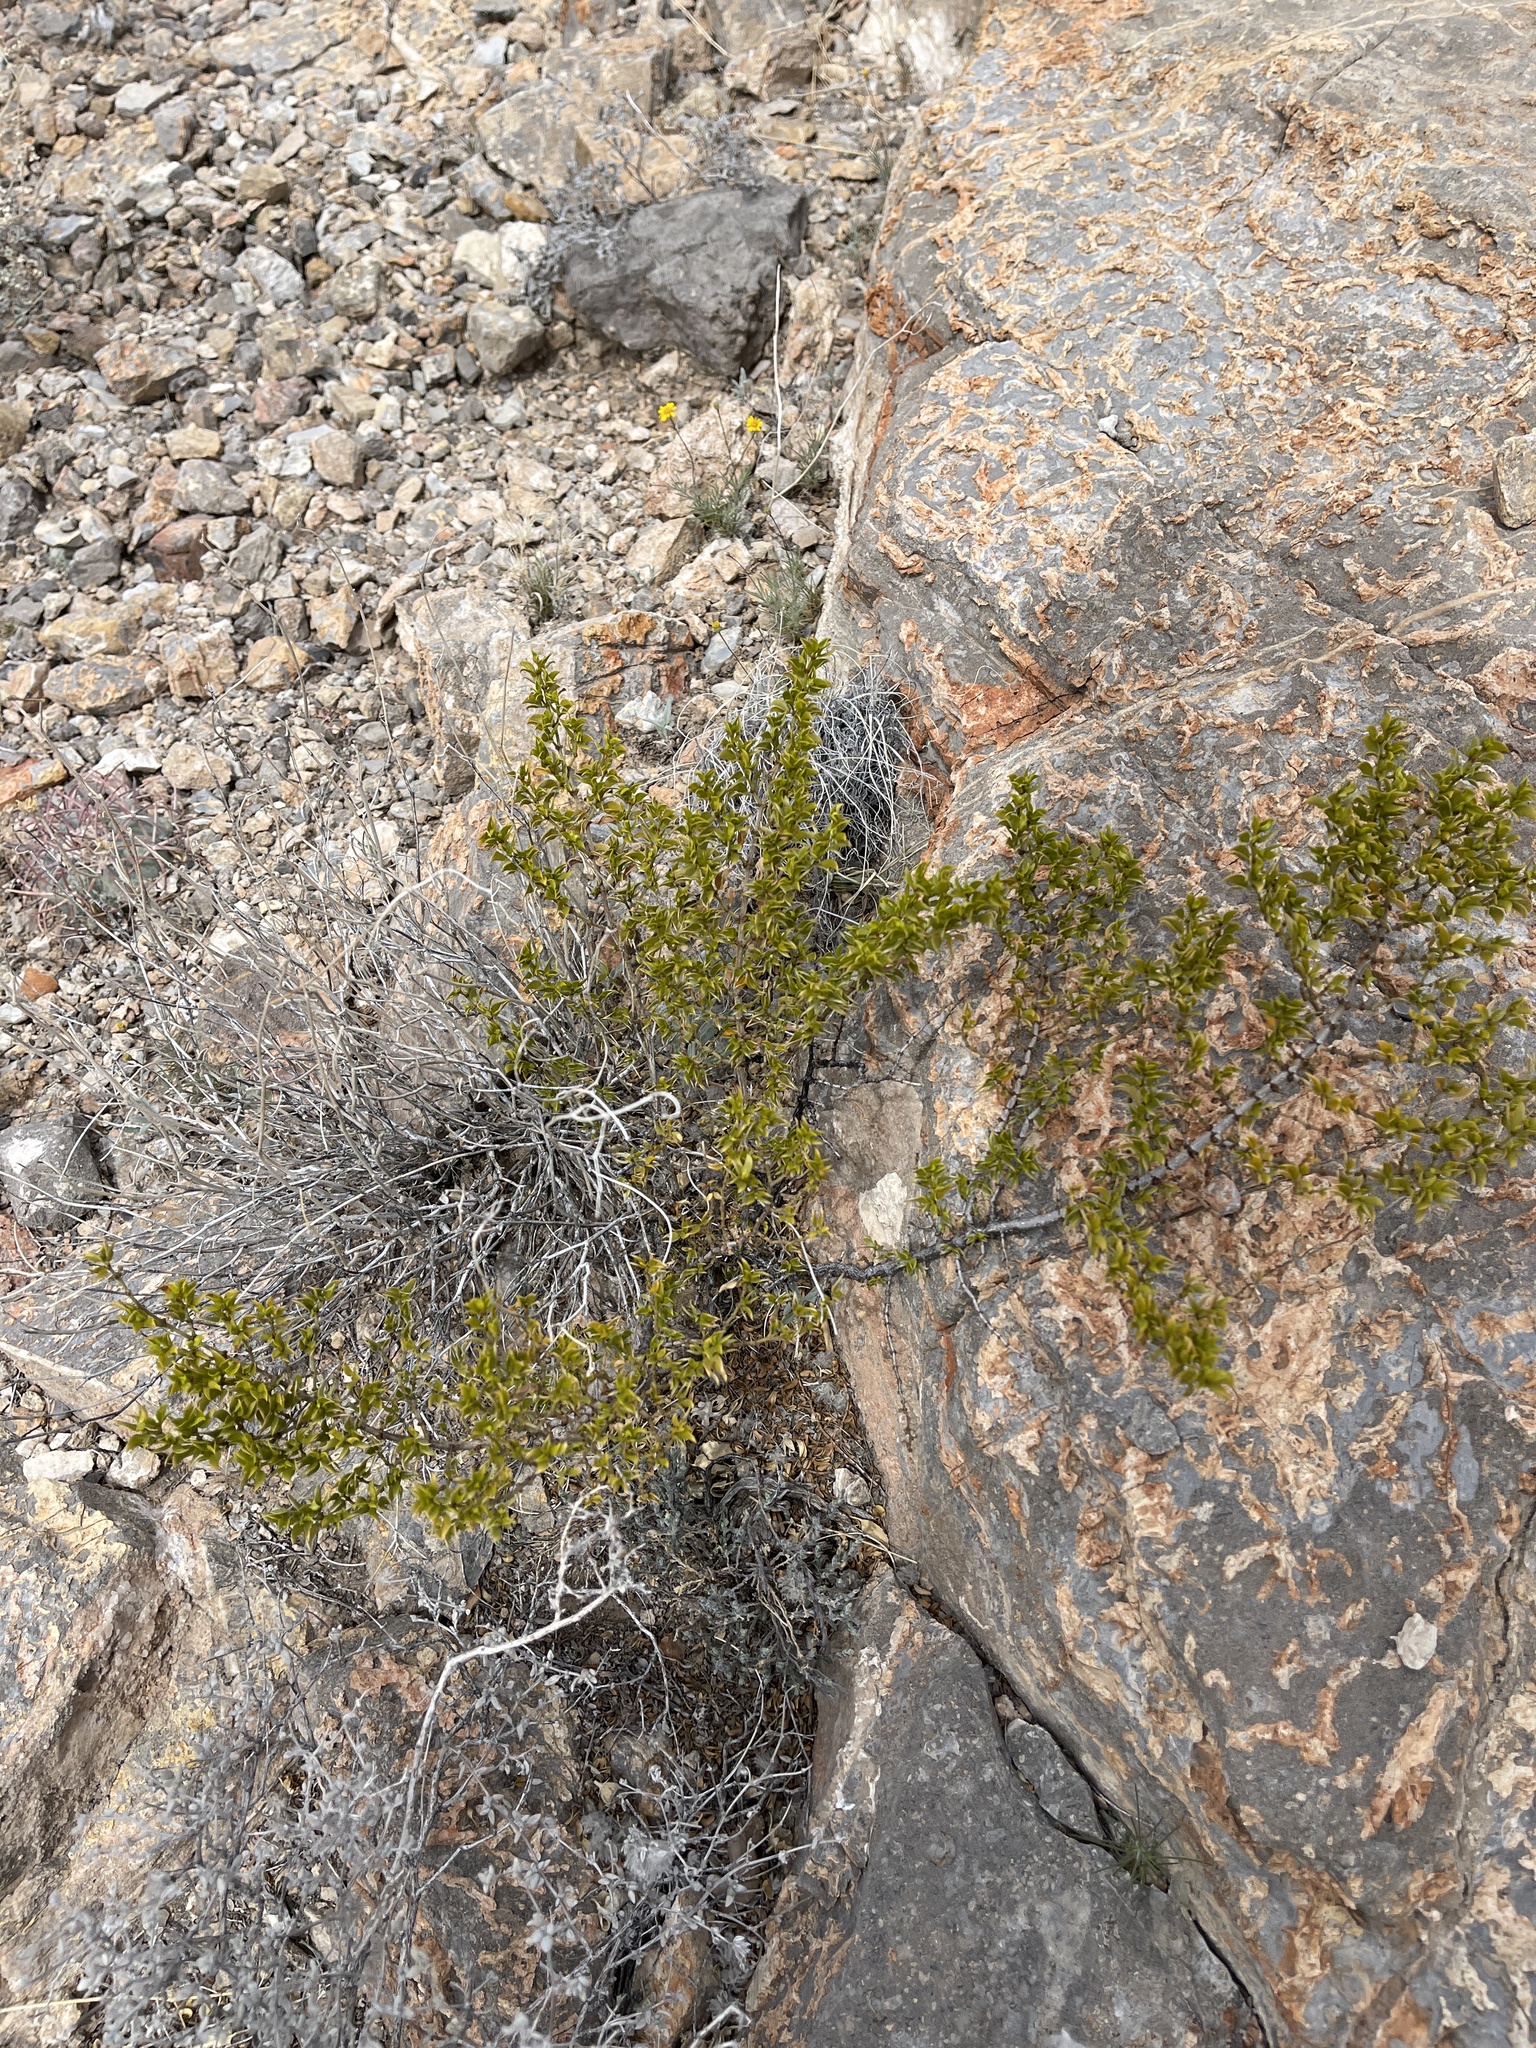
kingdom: Plantae
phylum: Tracheophyta
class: Magnoliopsida
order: Zygophyllales
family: Zygophyllaceae
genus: Larrea
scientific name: Larrea tridentata
